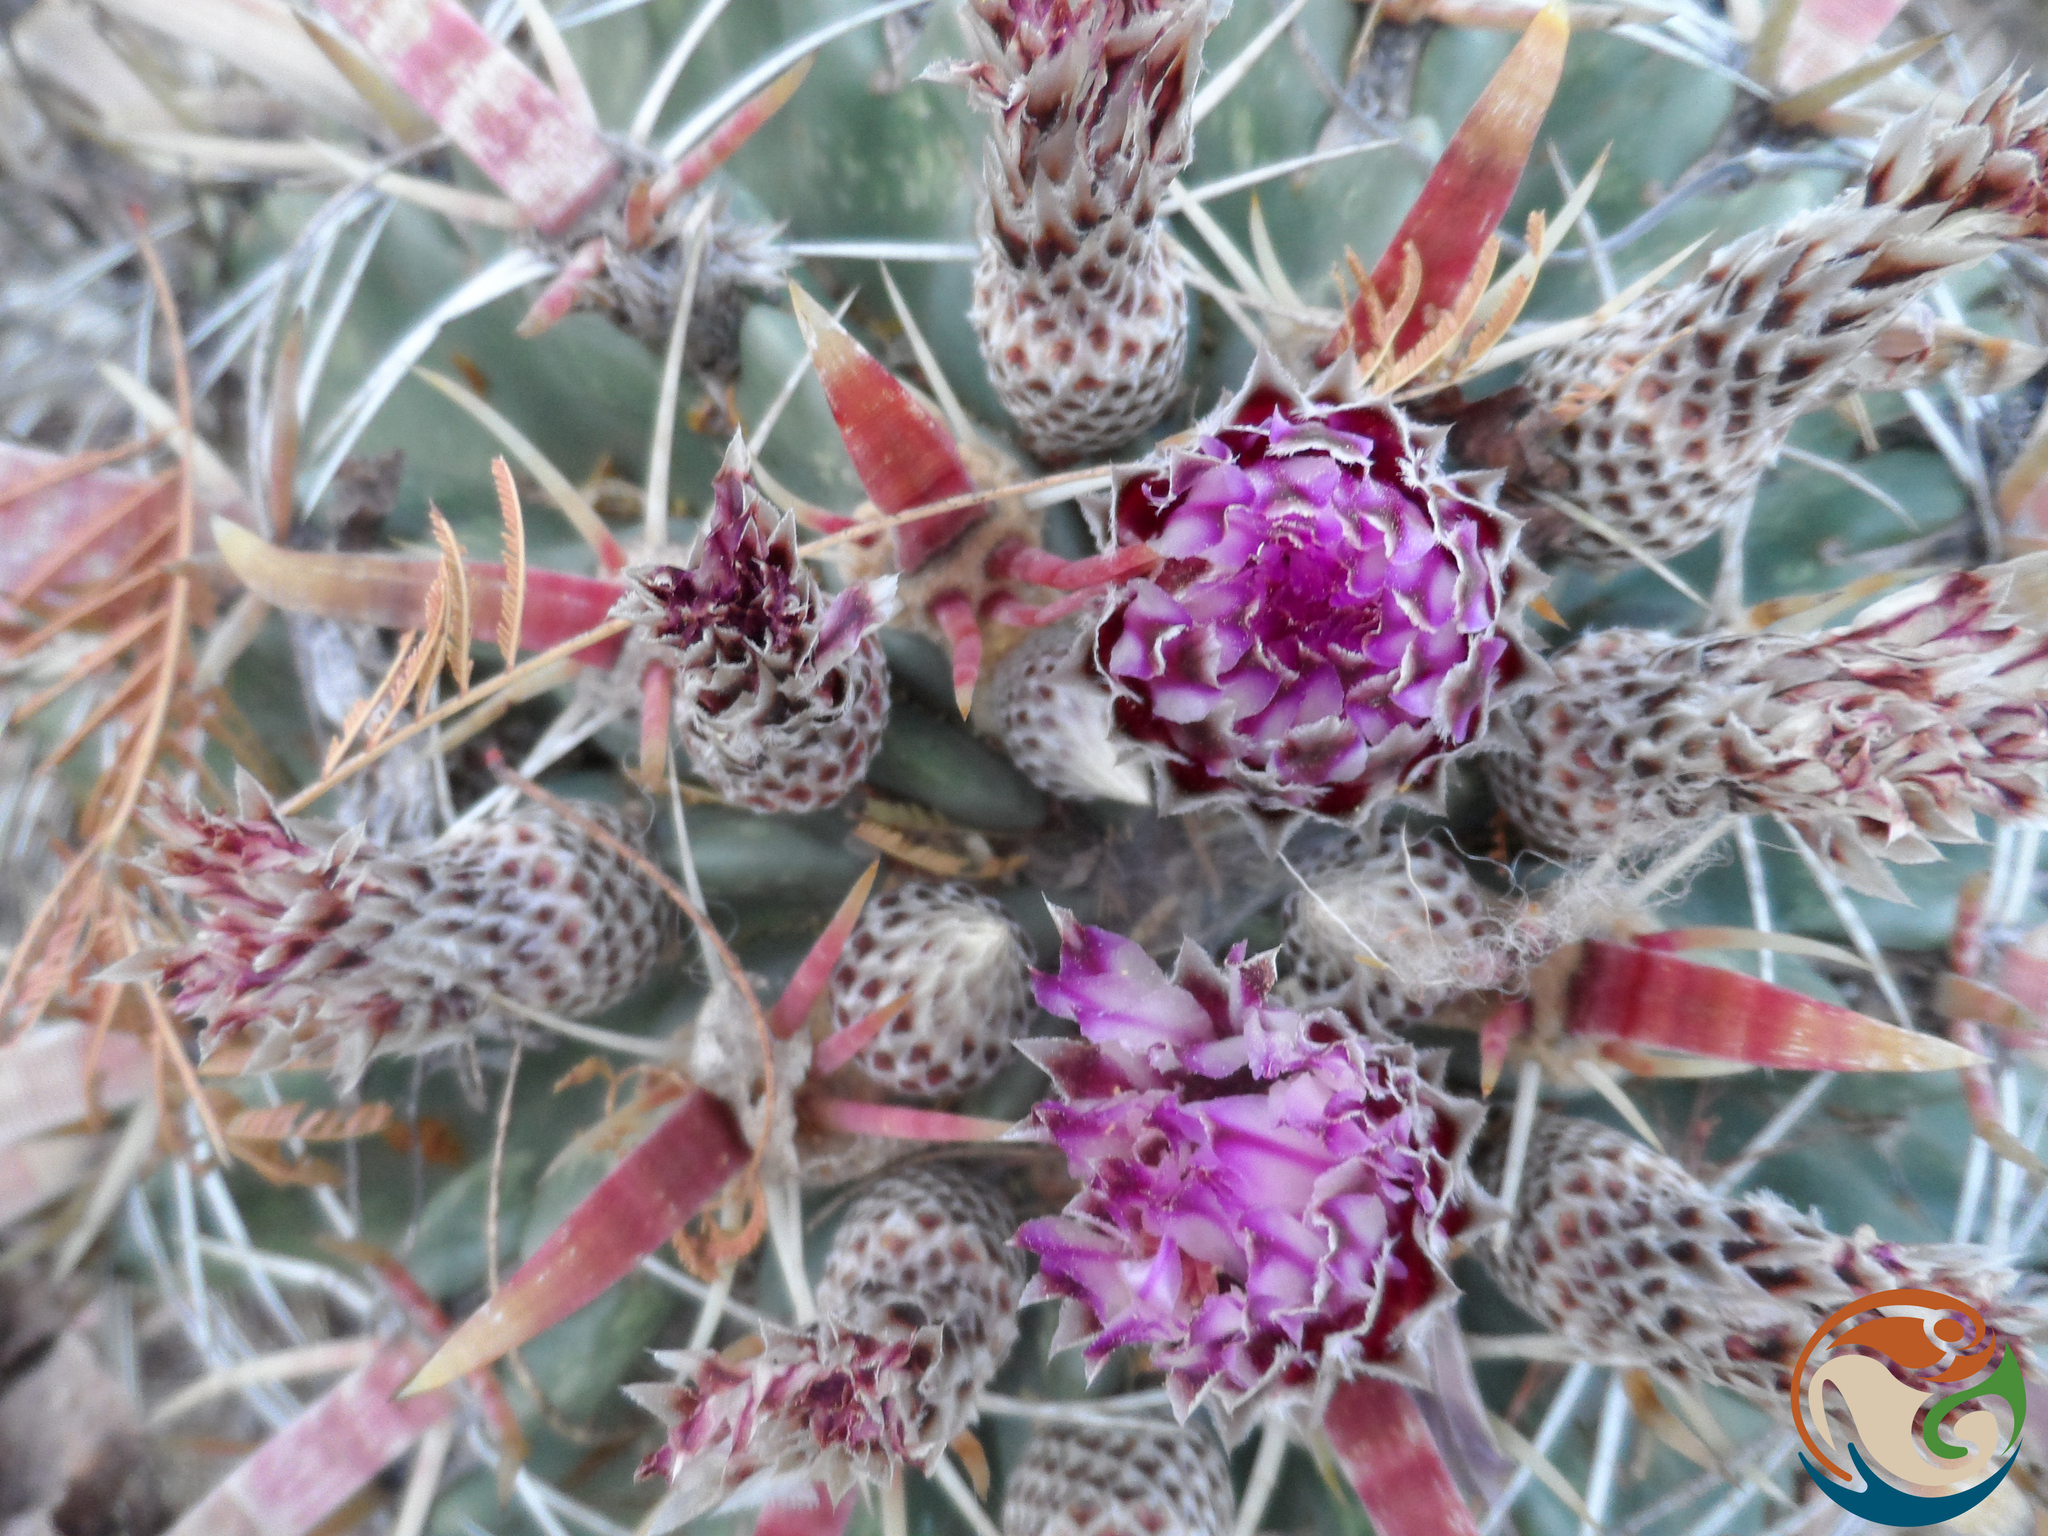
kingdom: Plantae
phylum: Tracheophyta
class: Magnoliopsida
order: Caryophyllales
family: Cactaceae
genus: Ferocactus
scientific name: Ferocactus latispinus
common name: Devil's-tongue cactus
